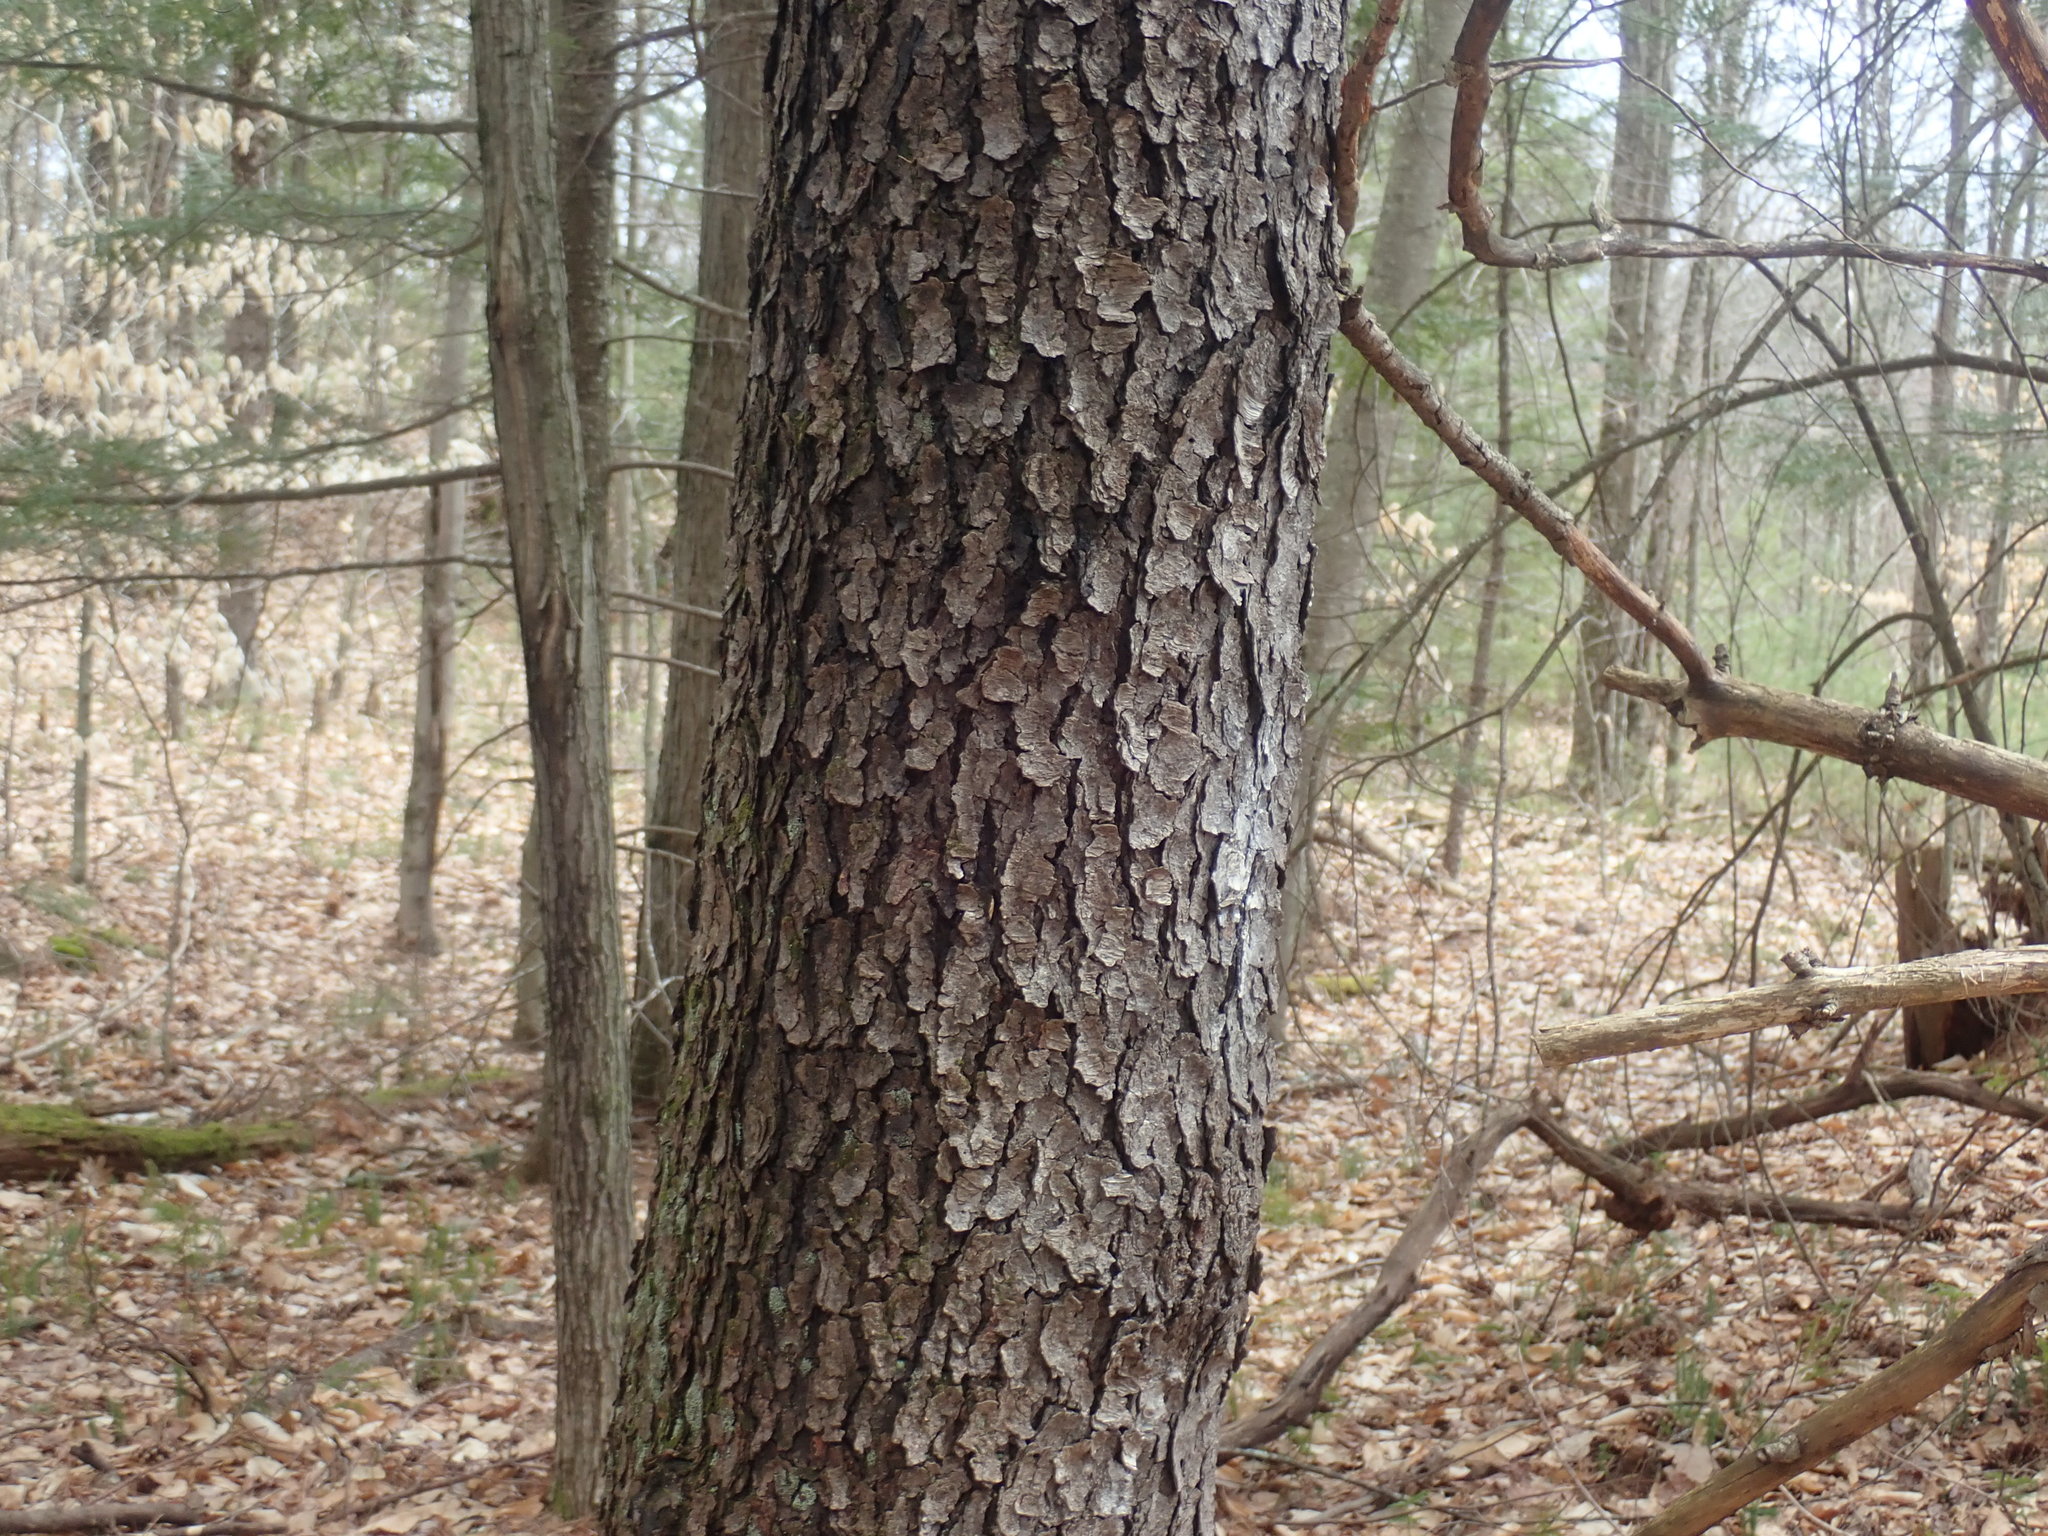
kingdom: Plantae
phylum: Tracheophyta
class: Magnoliopsida
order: Rosales
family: Rosaceae
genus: Prunus
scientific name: Prunus serotina
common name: Black cherry
